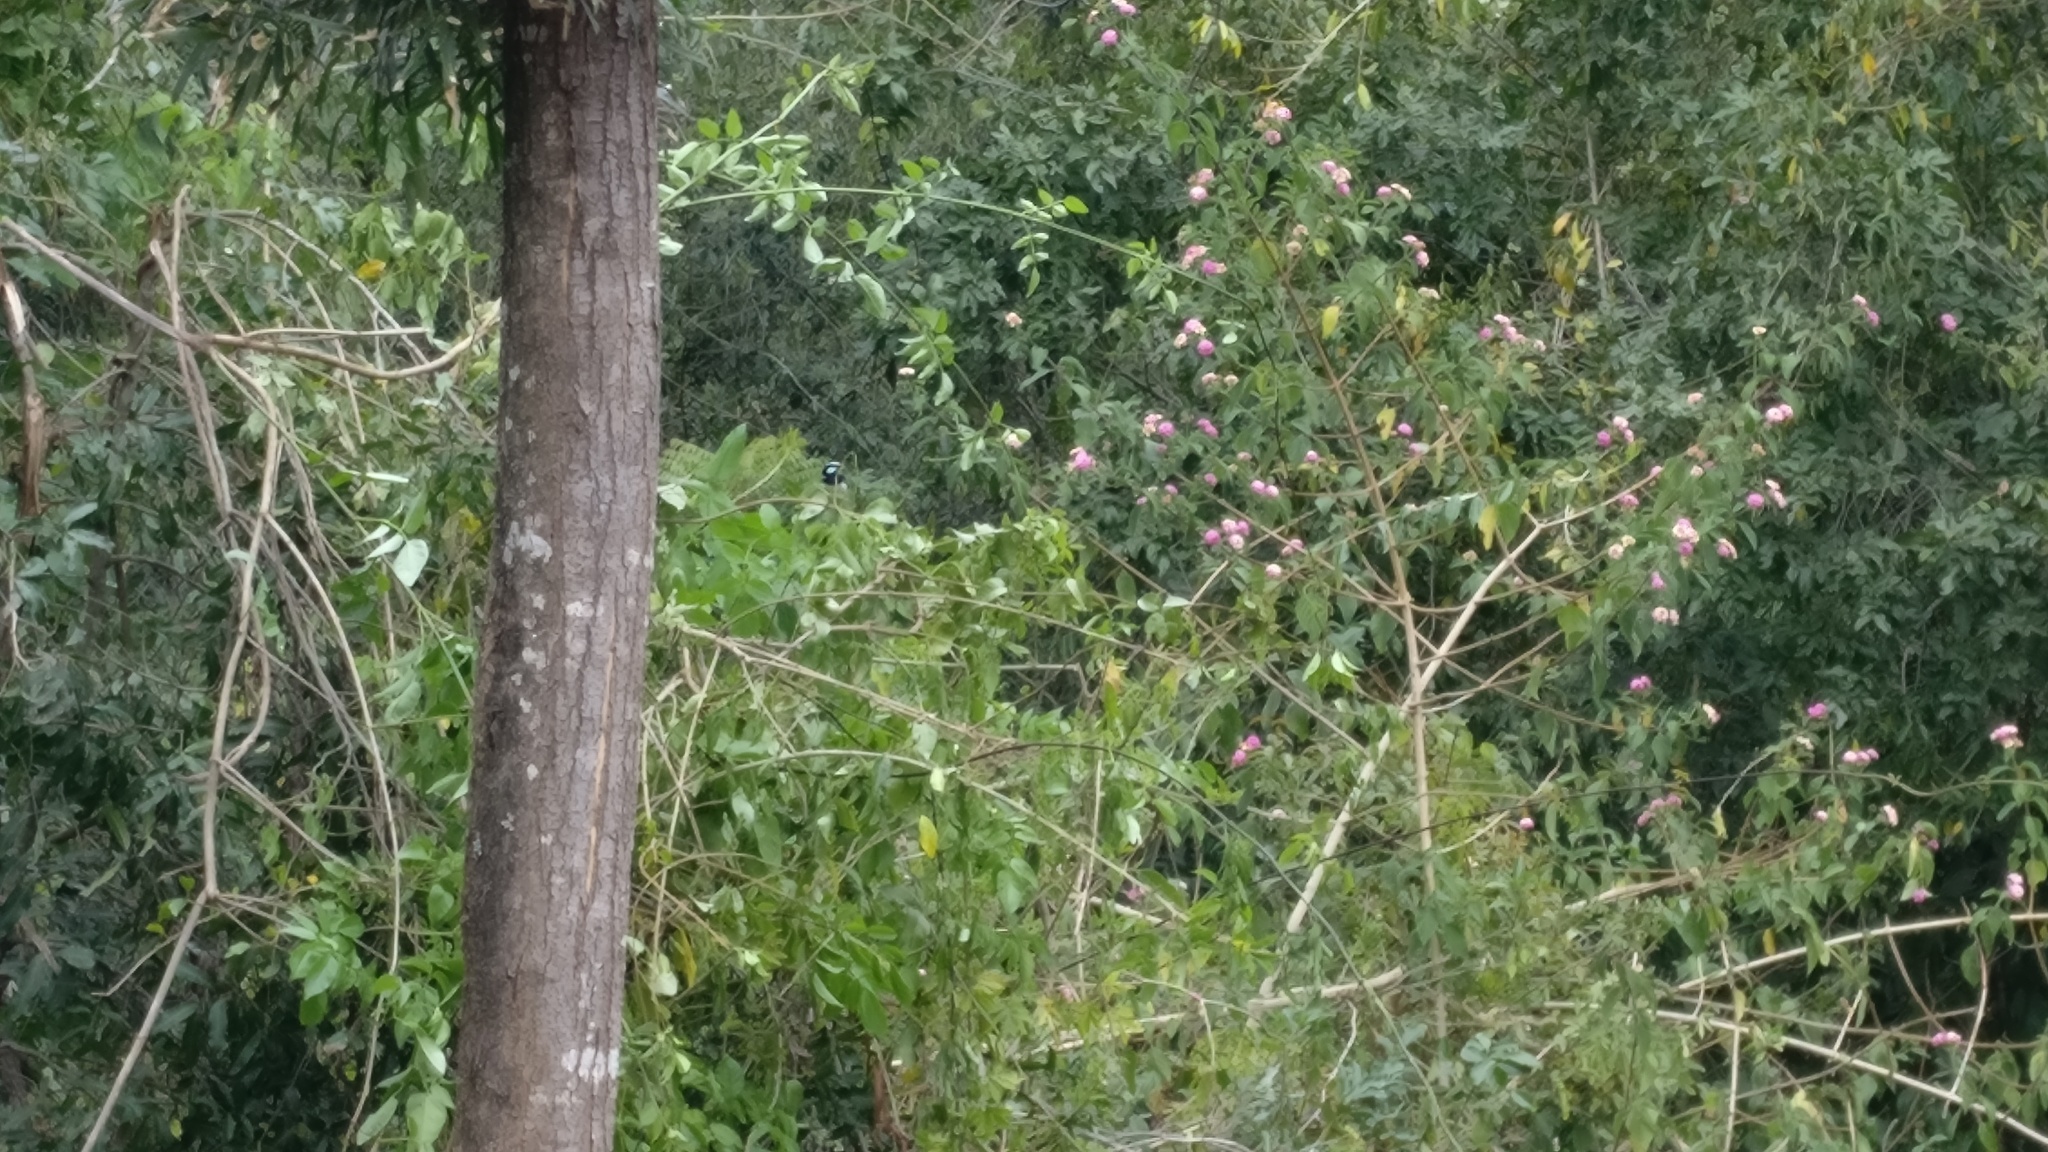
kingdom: Animalia
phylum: Chordata
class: Aves
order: Passeriformes
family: Maluridae
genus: Malurus
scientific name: Malurus cyaneus
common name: Superb fairywren
